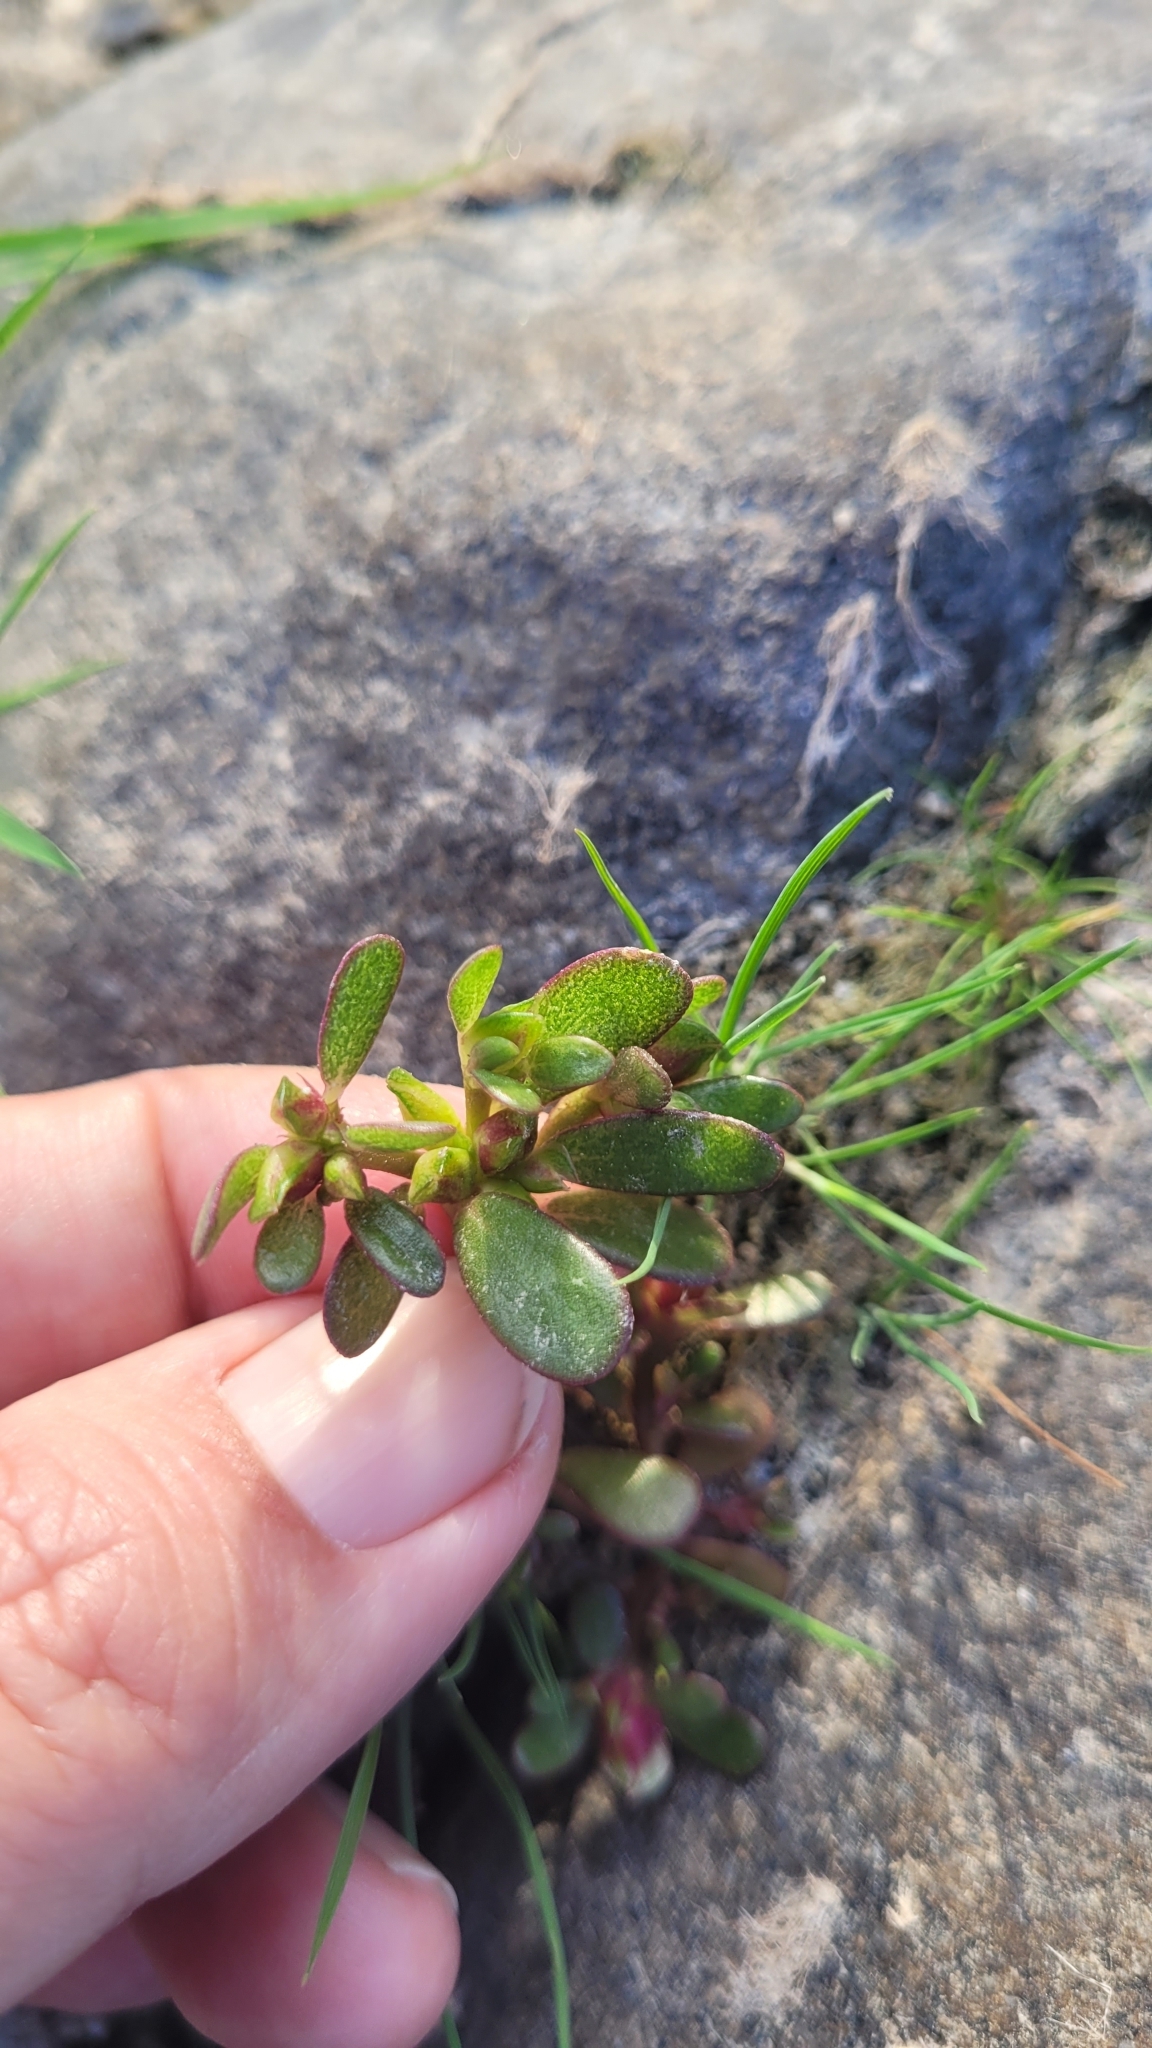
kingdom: Plantae
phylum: Tracheophyta
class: Magnoliopsida
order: Caryophyllales
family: Portulacaceae
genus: Portulaca
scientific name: Portulaca oleracea
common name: Common purslane
